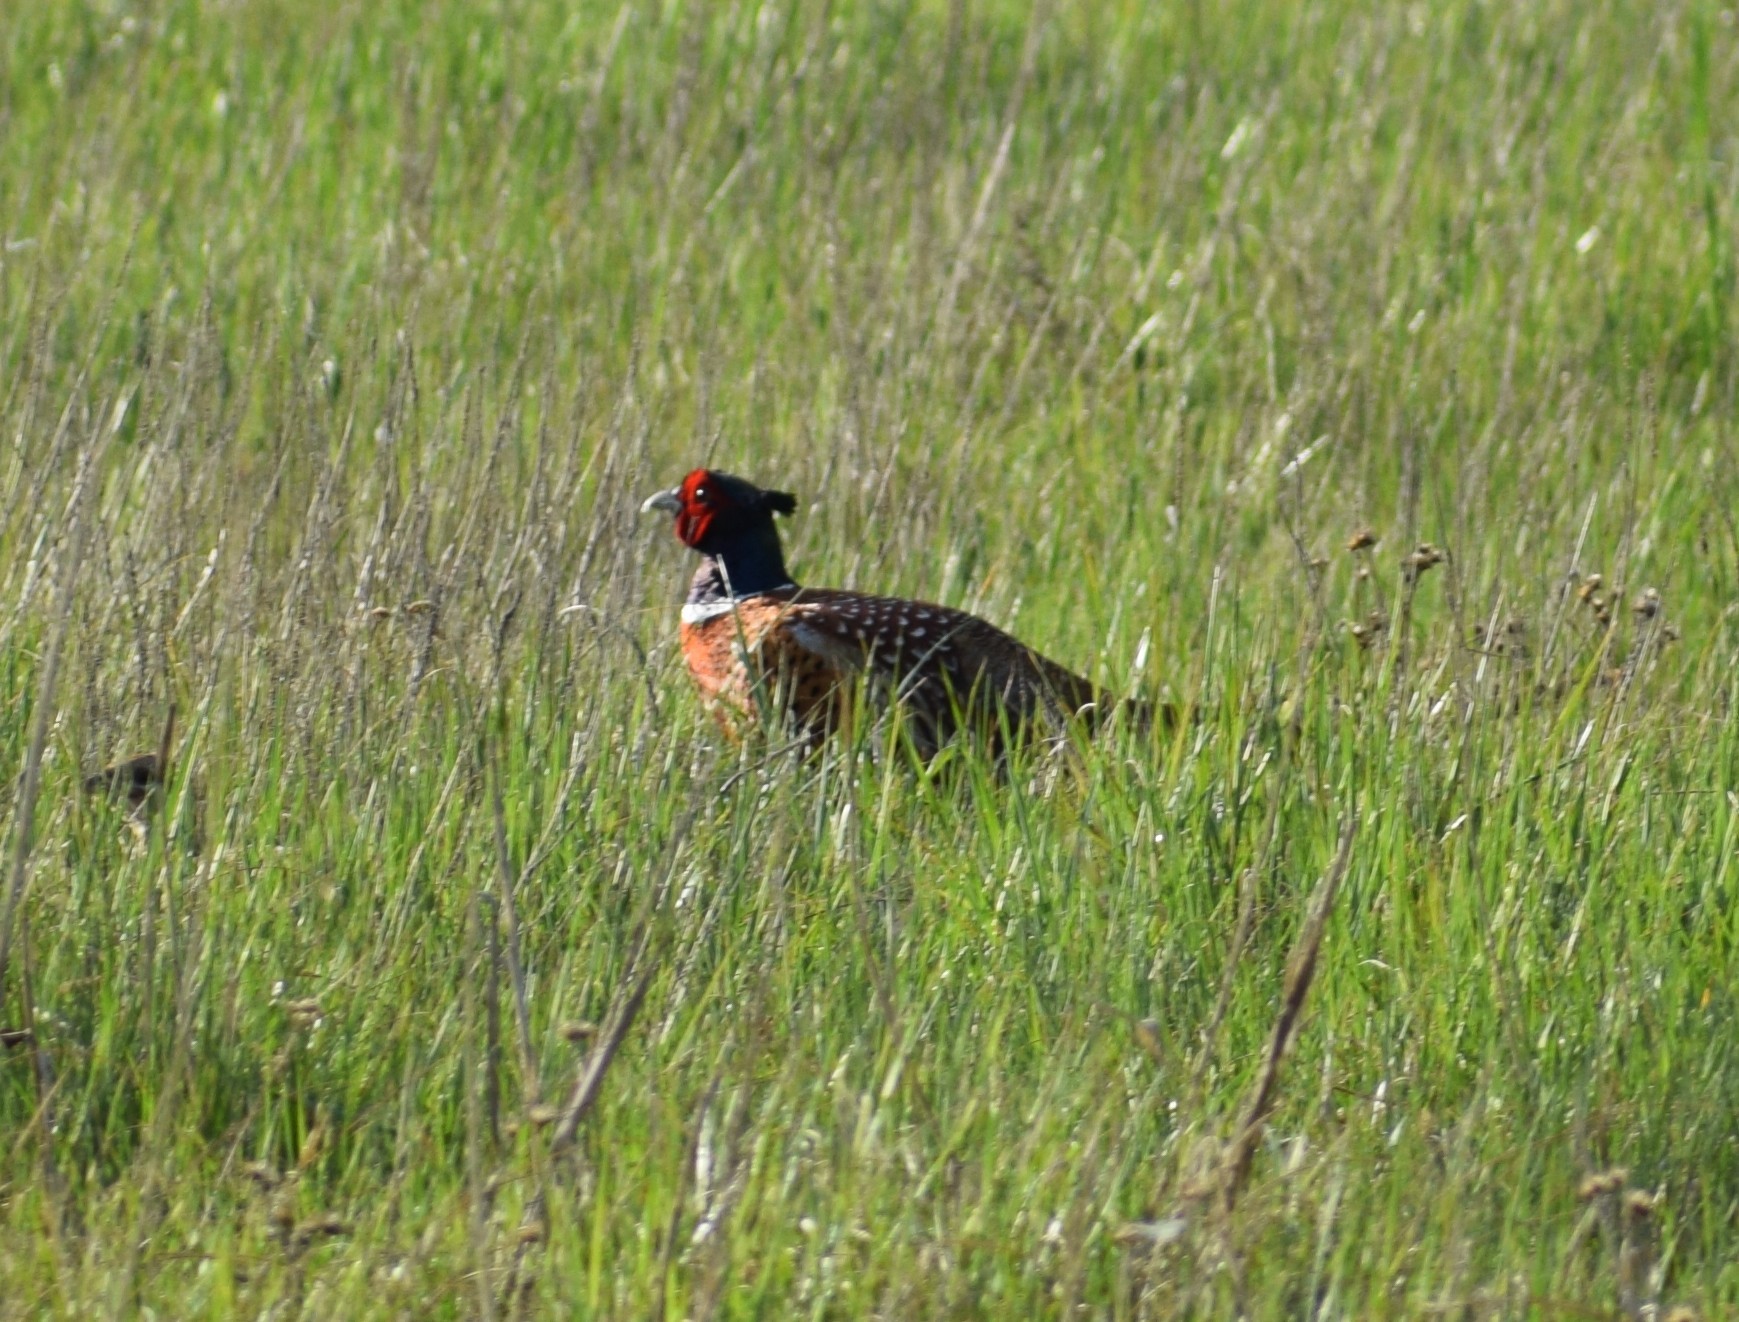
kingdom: Animalia
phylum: Chordata
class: Aves
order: Galliformes
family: Phasianidae
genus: Phasianus
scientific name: Phasianus colchicus
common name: Common pheasant
